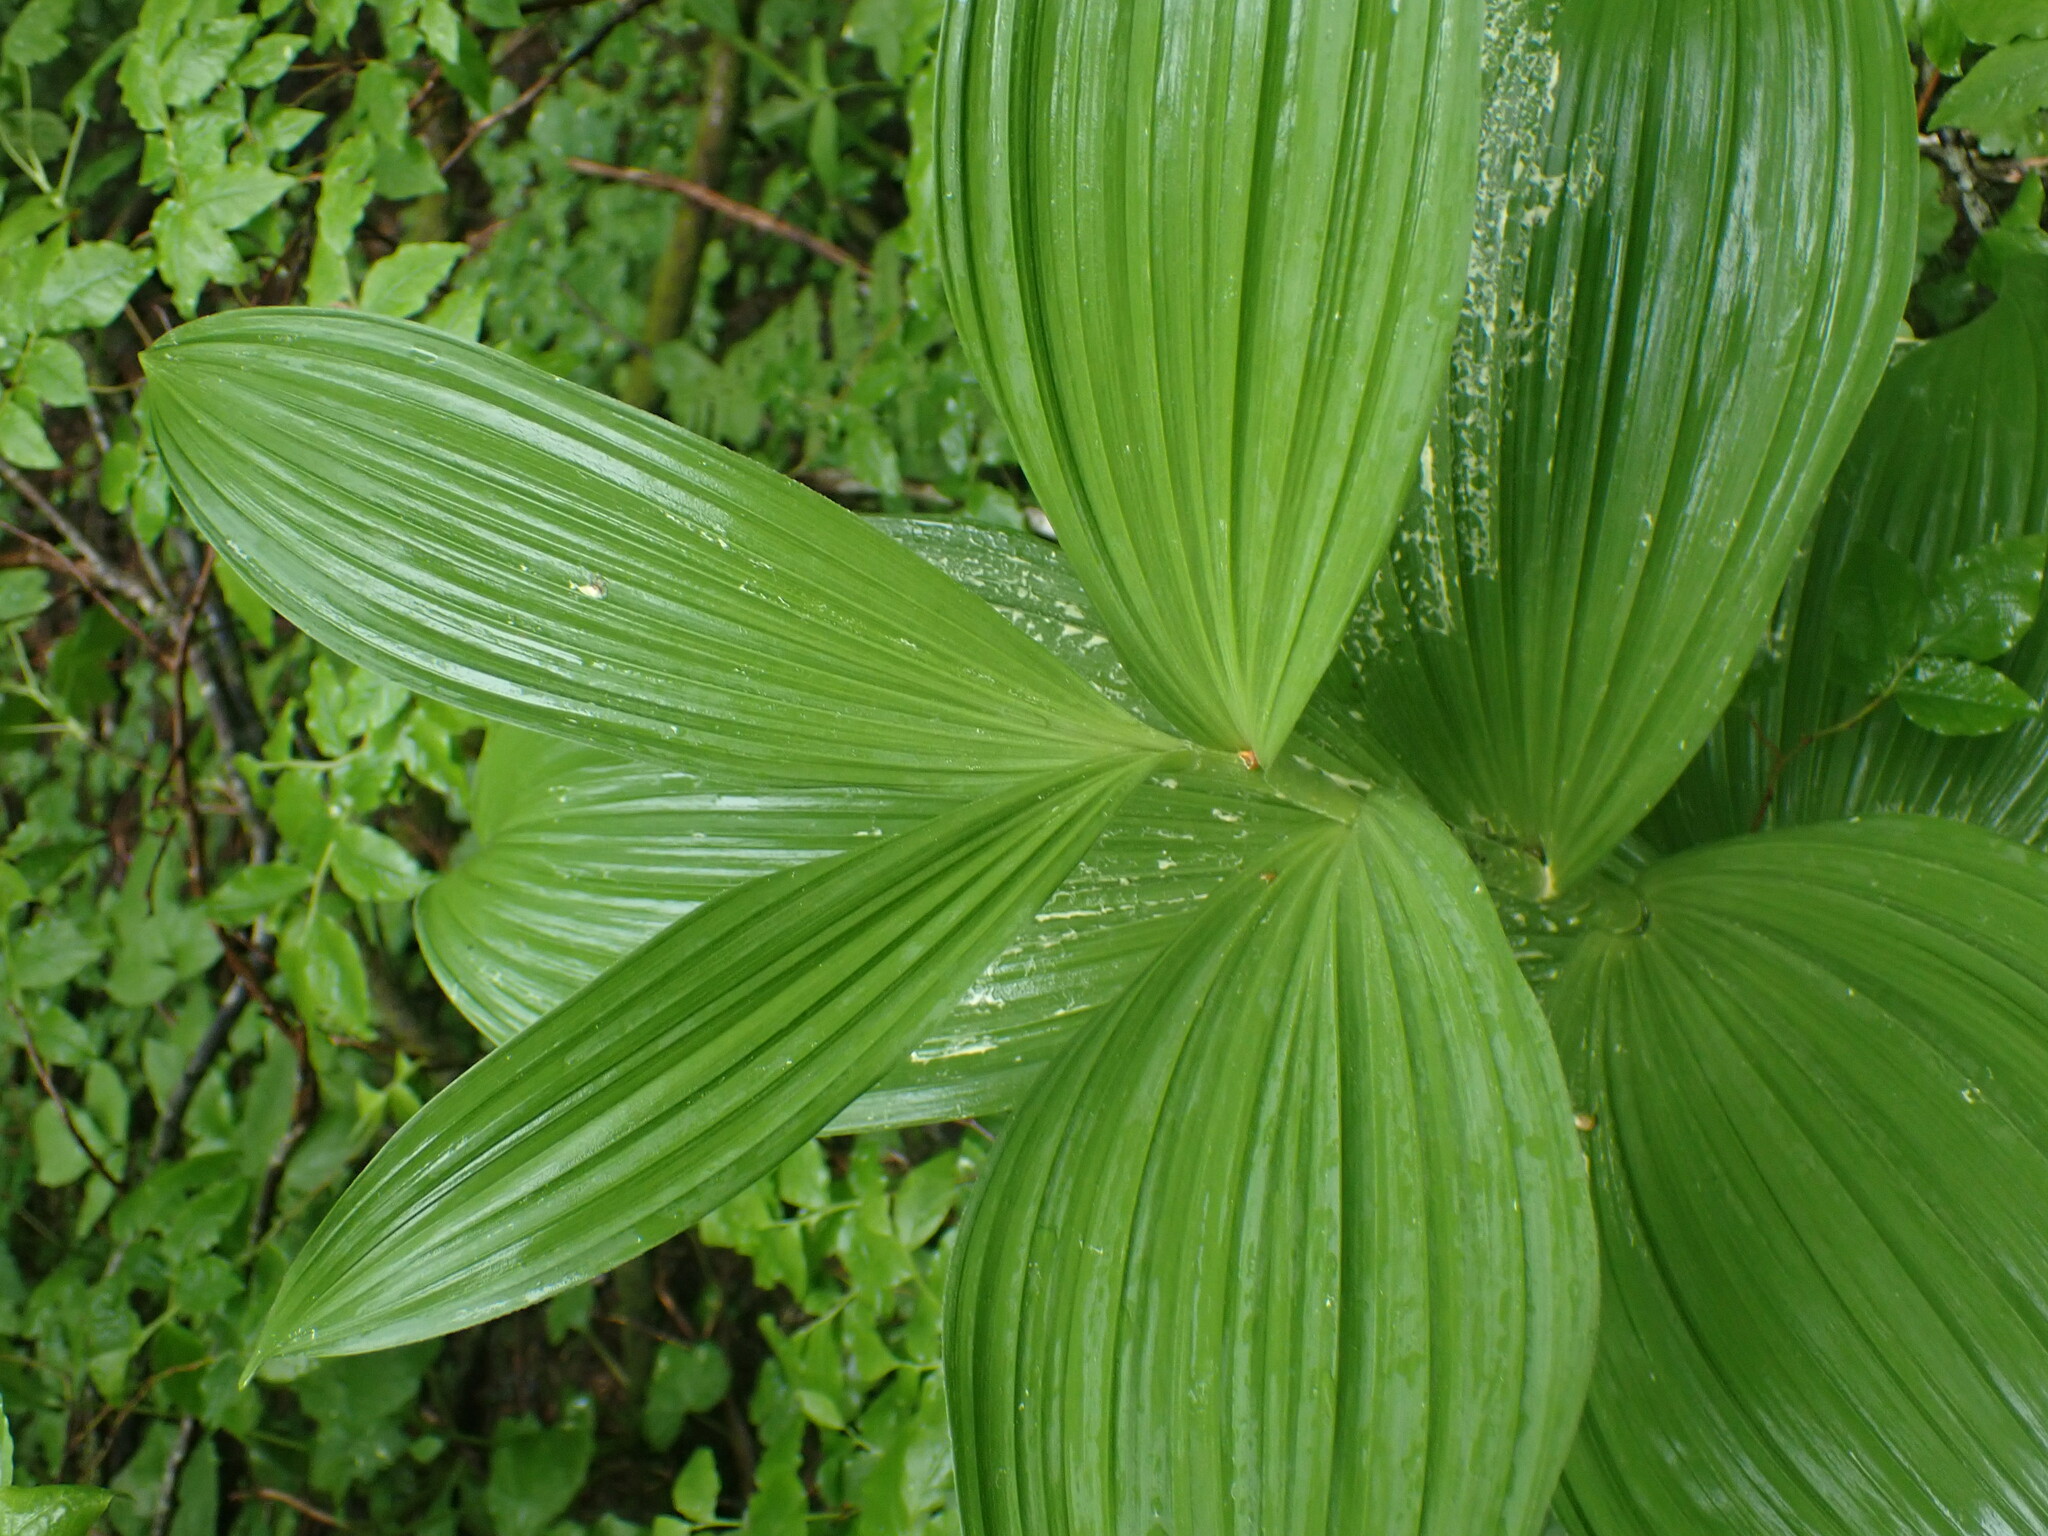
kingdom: Plantae
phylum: Tracheophyta
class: Liliopsida
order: Liliales
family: Melanthiaceae
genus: Veratrum
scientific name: Veratrum viride
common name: American false hellebore
